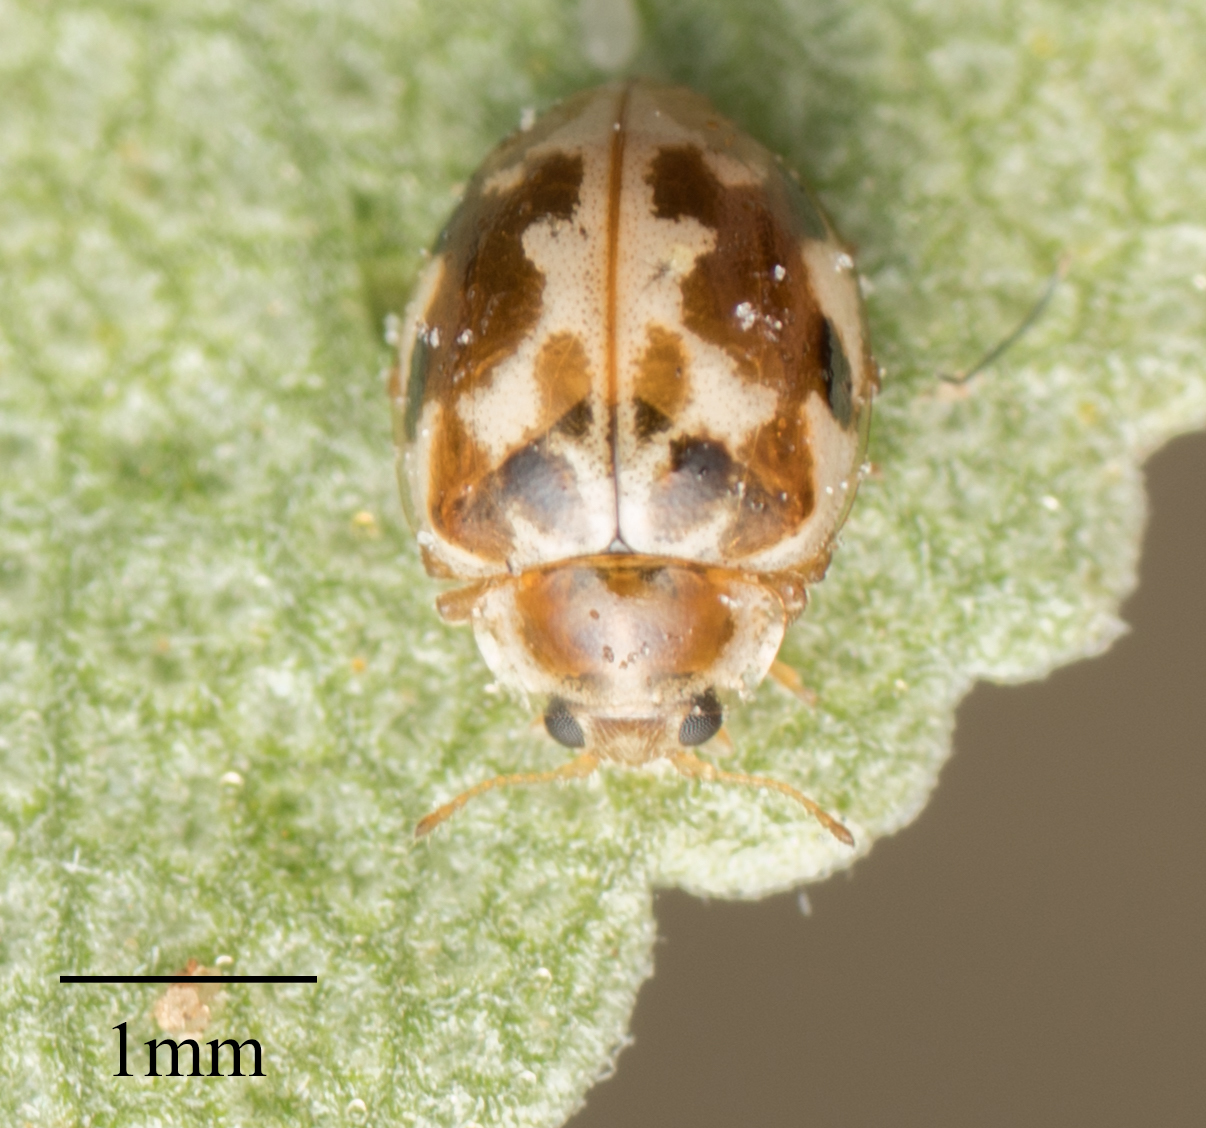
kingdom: Animalia
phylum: Arthropoda
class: Insecta
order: Coleoptera
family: Coccinellidae
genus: Psyllobora
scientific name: Psyllobora vigintimaculata
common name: Ladybird beetle
